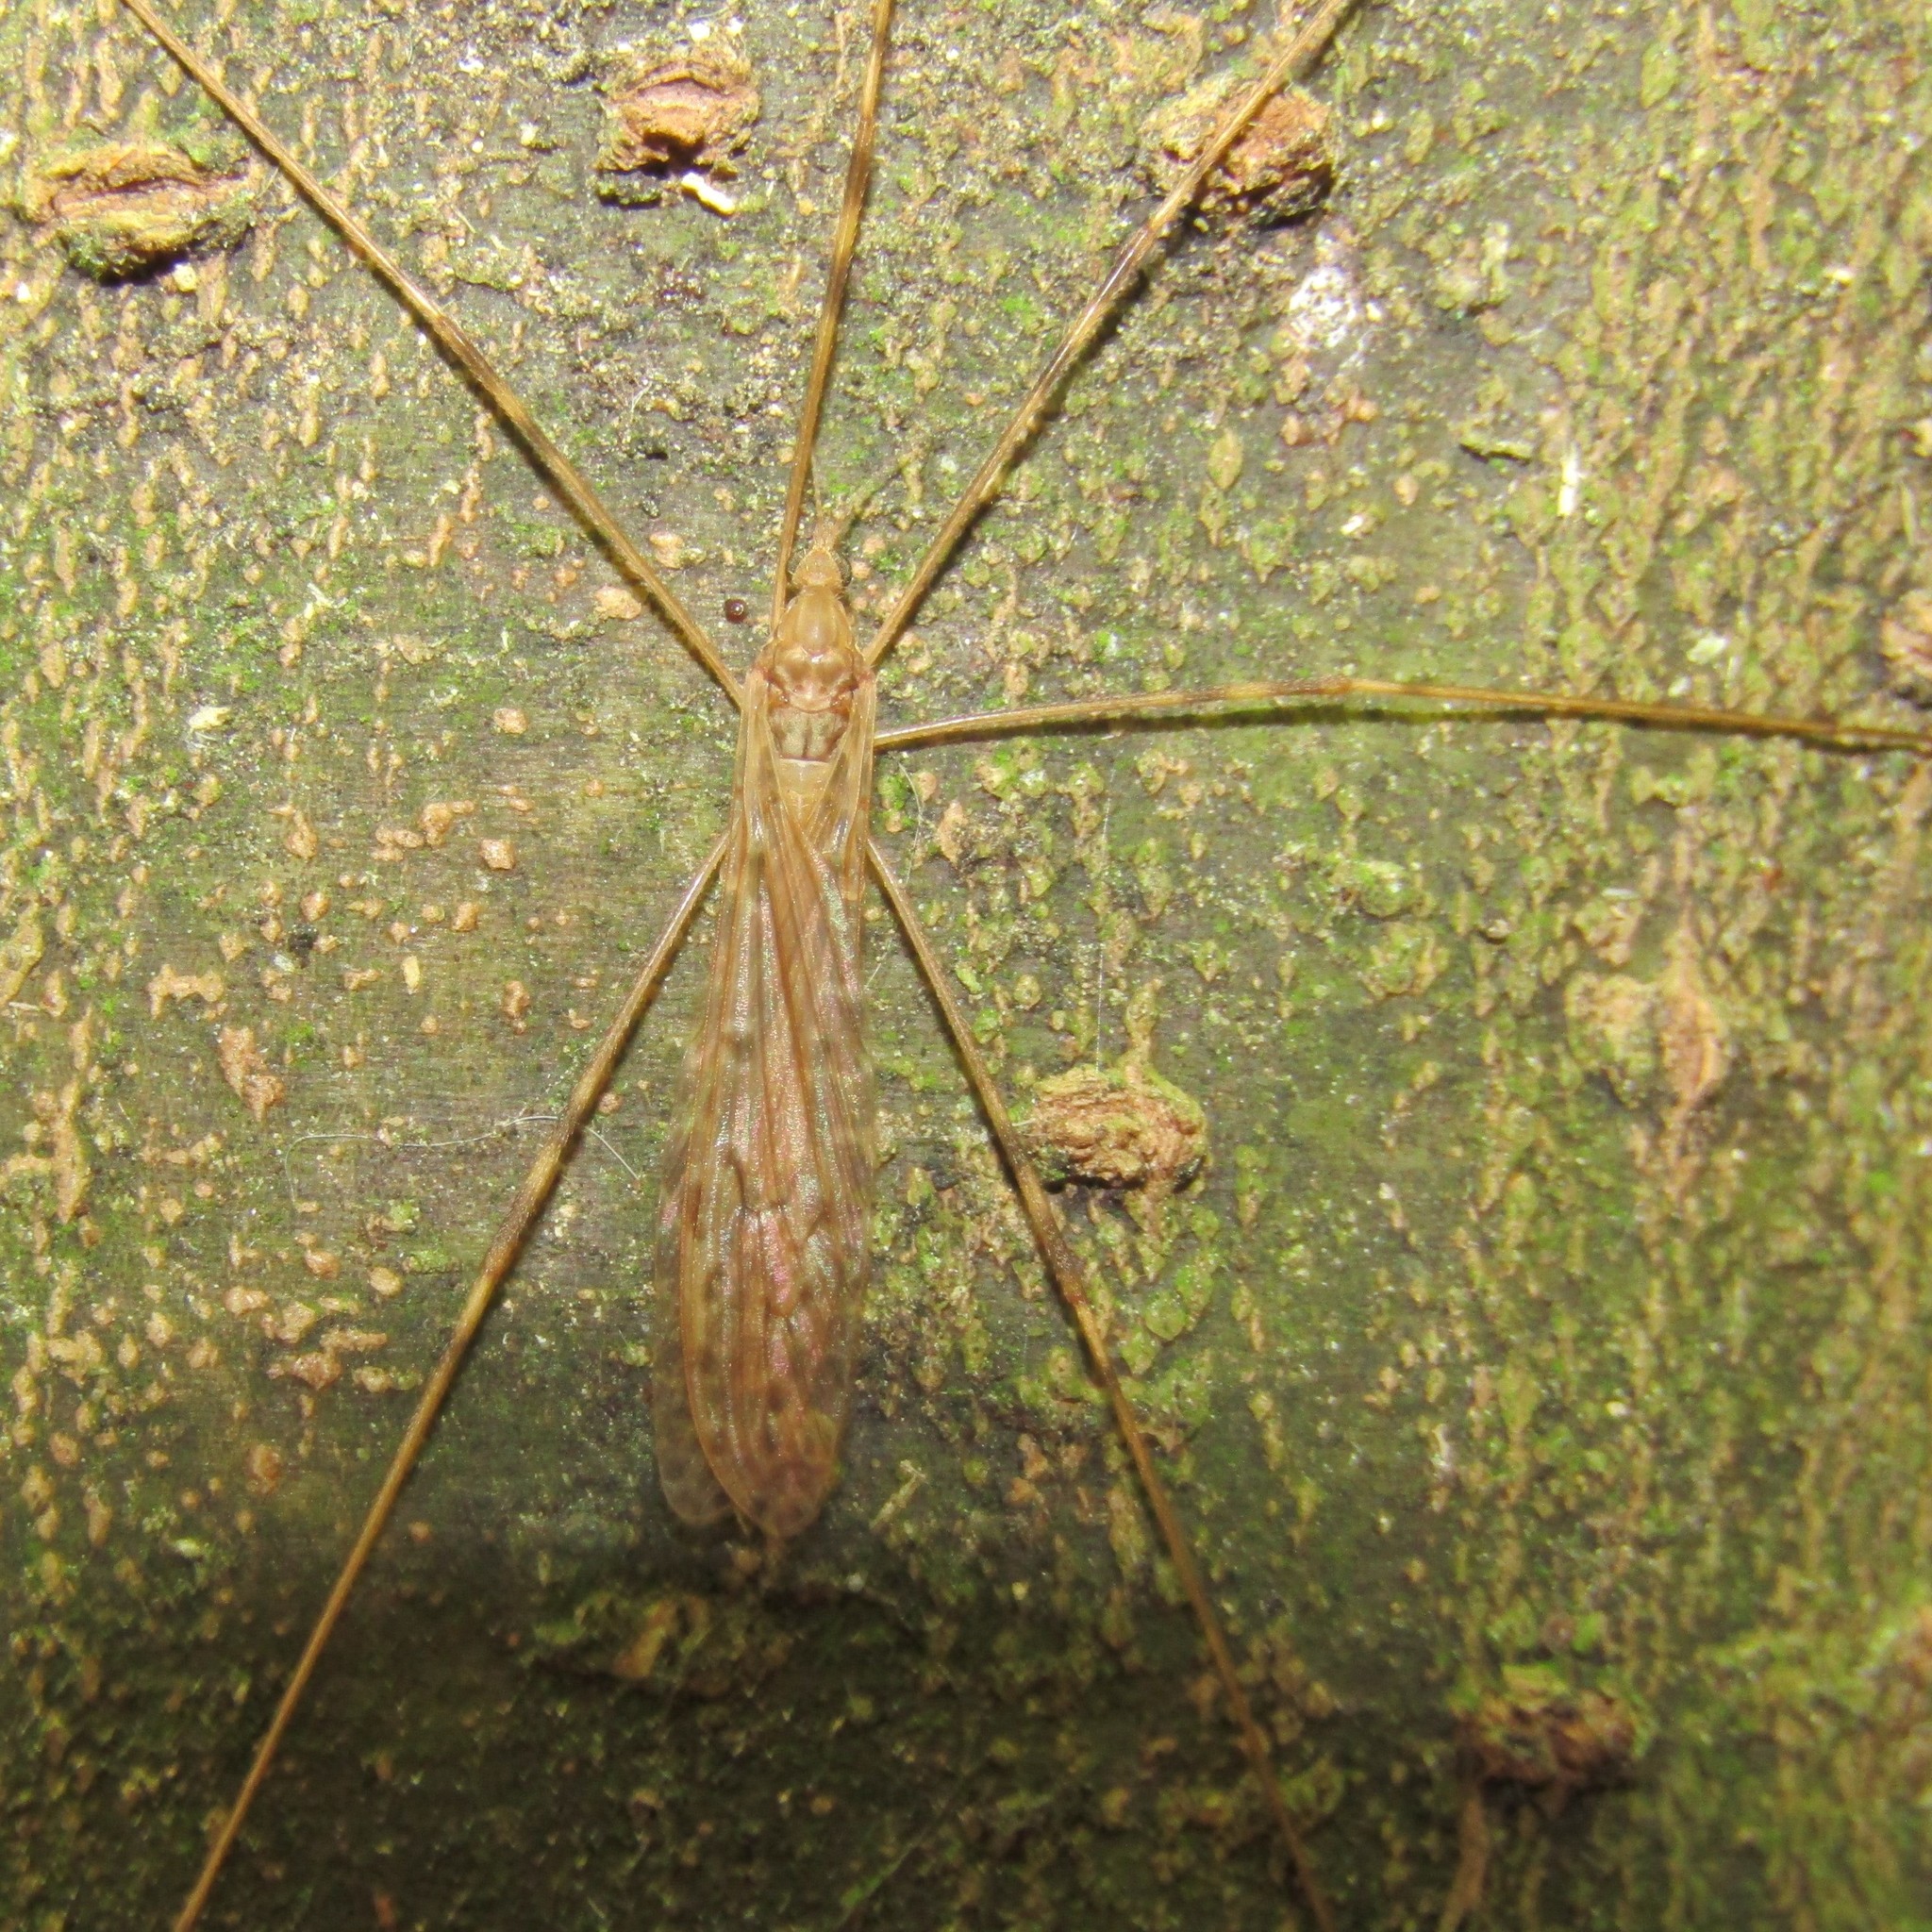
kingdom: Animalia
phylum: Arthropoda
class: Insecta
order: Diptera
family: Limoniidae
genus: Austrolimnophila
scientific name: Austrolimnophila crassipes
